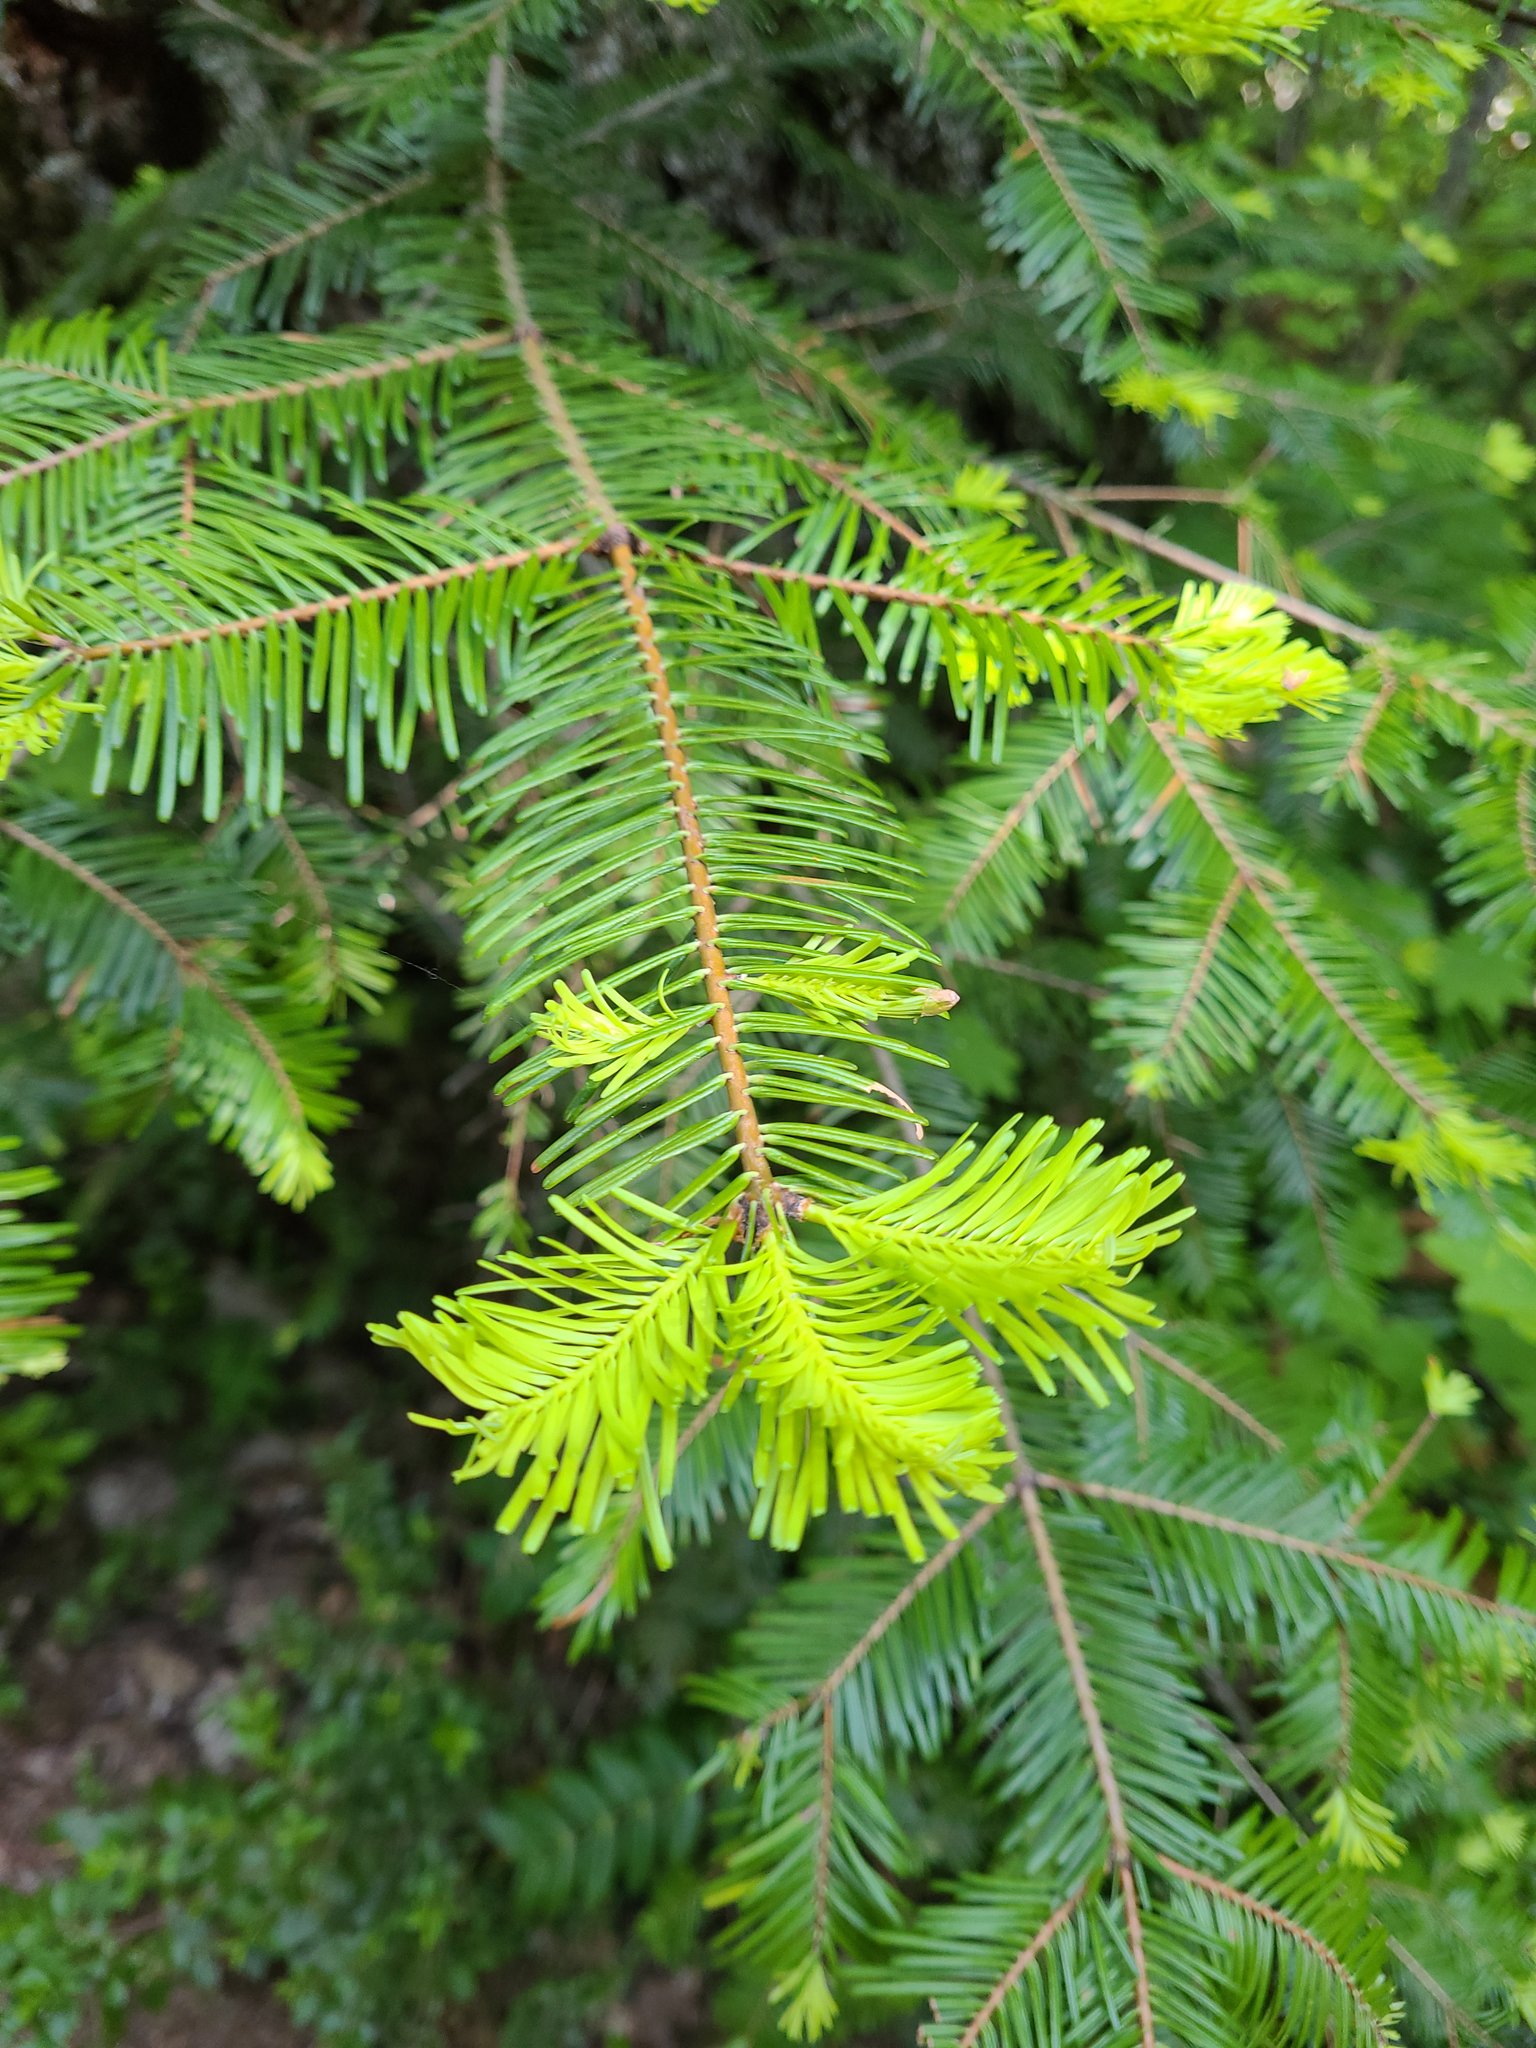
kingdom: Plantae
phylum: Tracheophyta
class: Pinopsida
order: Pinales
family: Pinaceae
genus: Abies
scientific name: Abies grandis
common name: Giant fir
